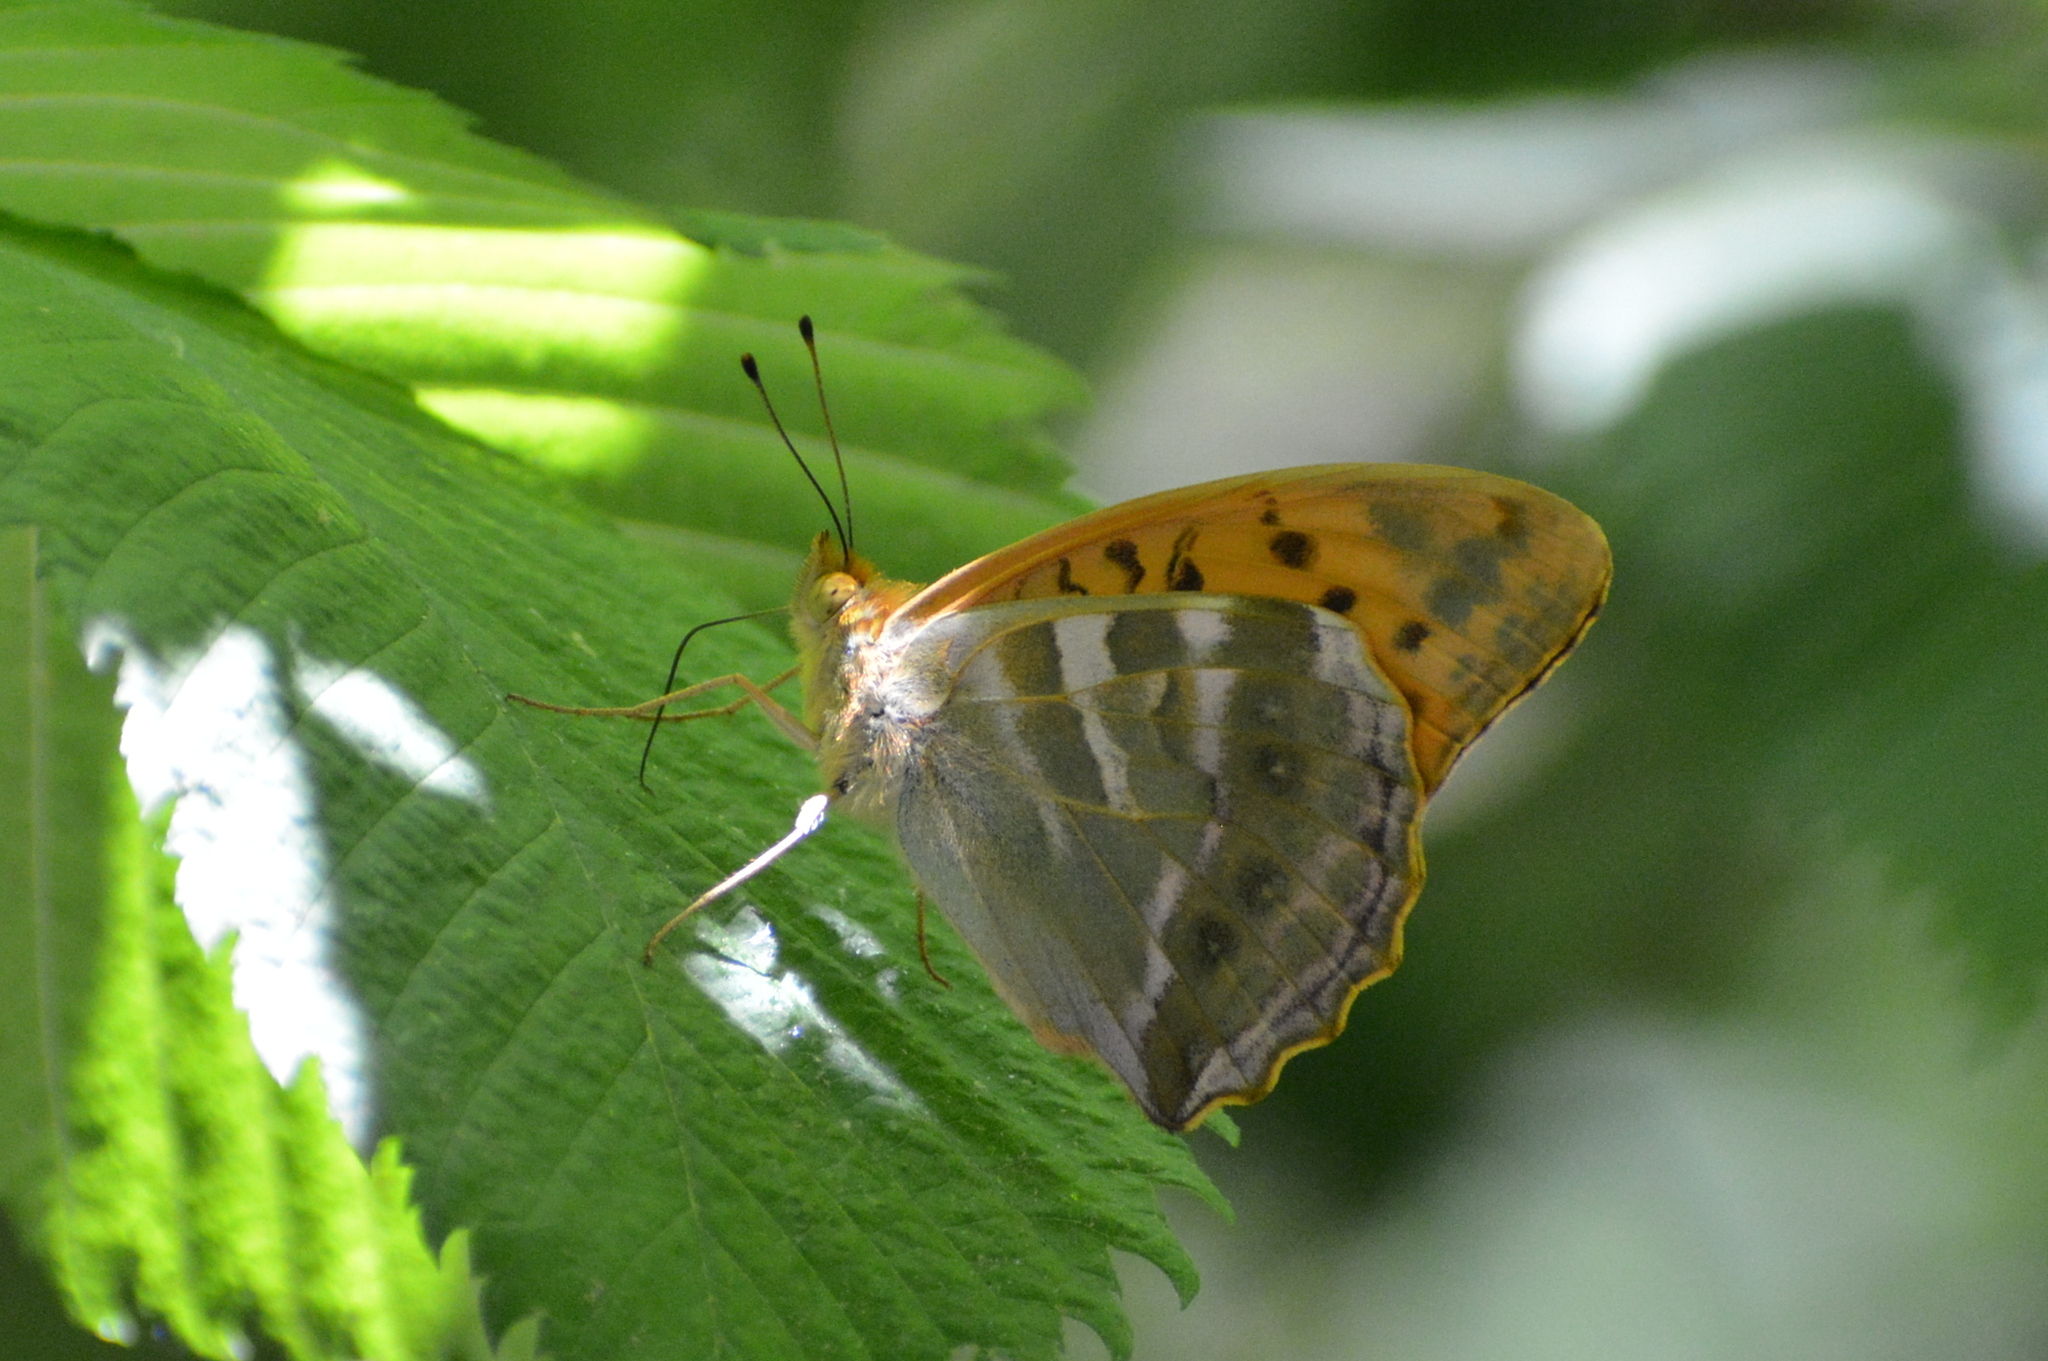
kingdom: Animalia
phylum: Arthropoda
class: Insecta
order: Lepidoptera
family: Nymphalidae
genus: Argynnis
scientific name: Argynnis paphia
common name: Silver-washed fritillary
